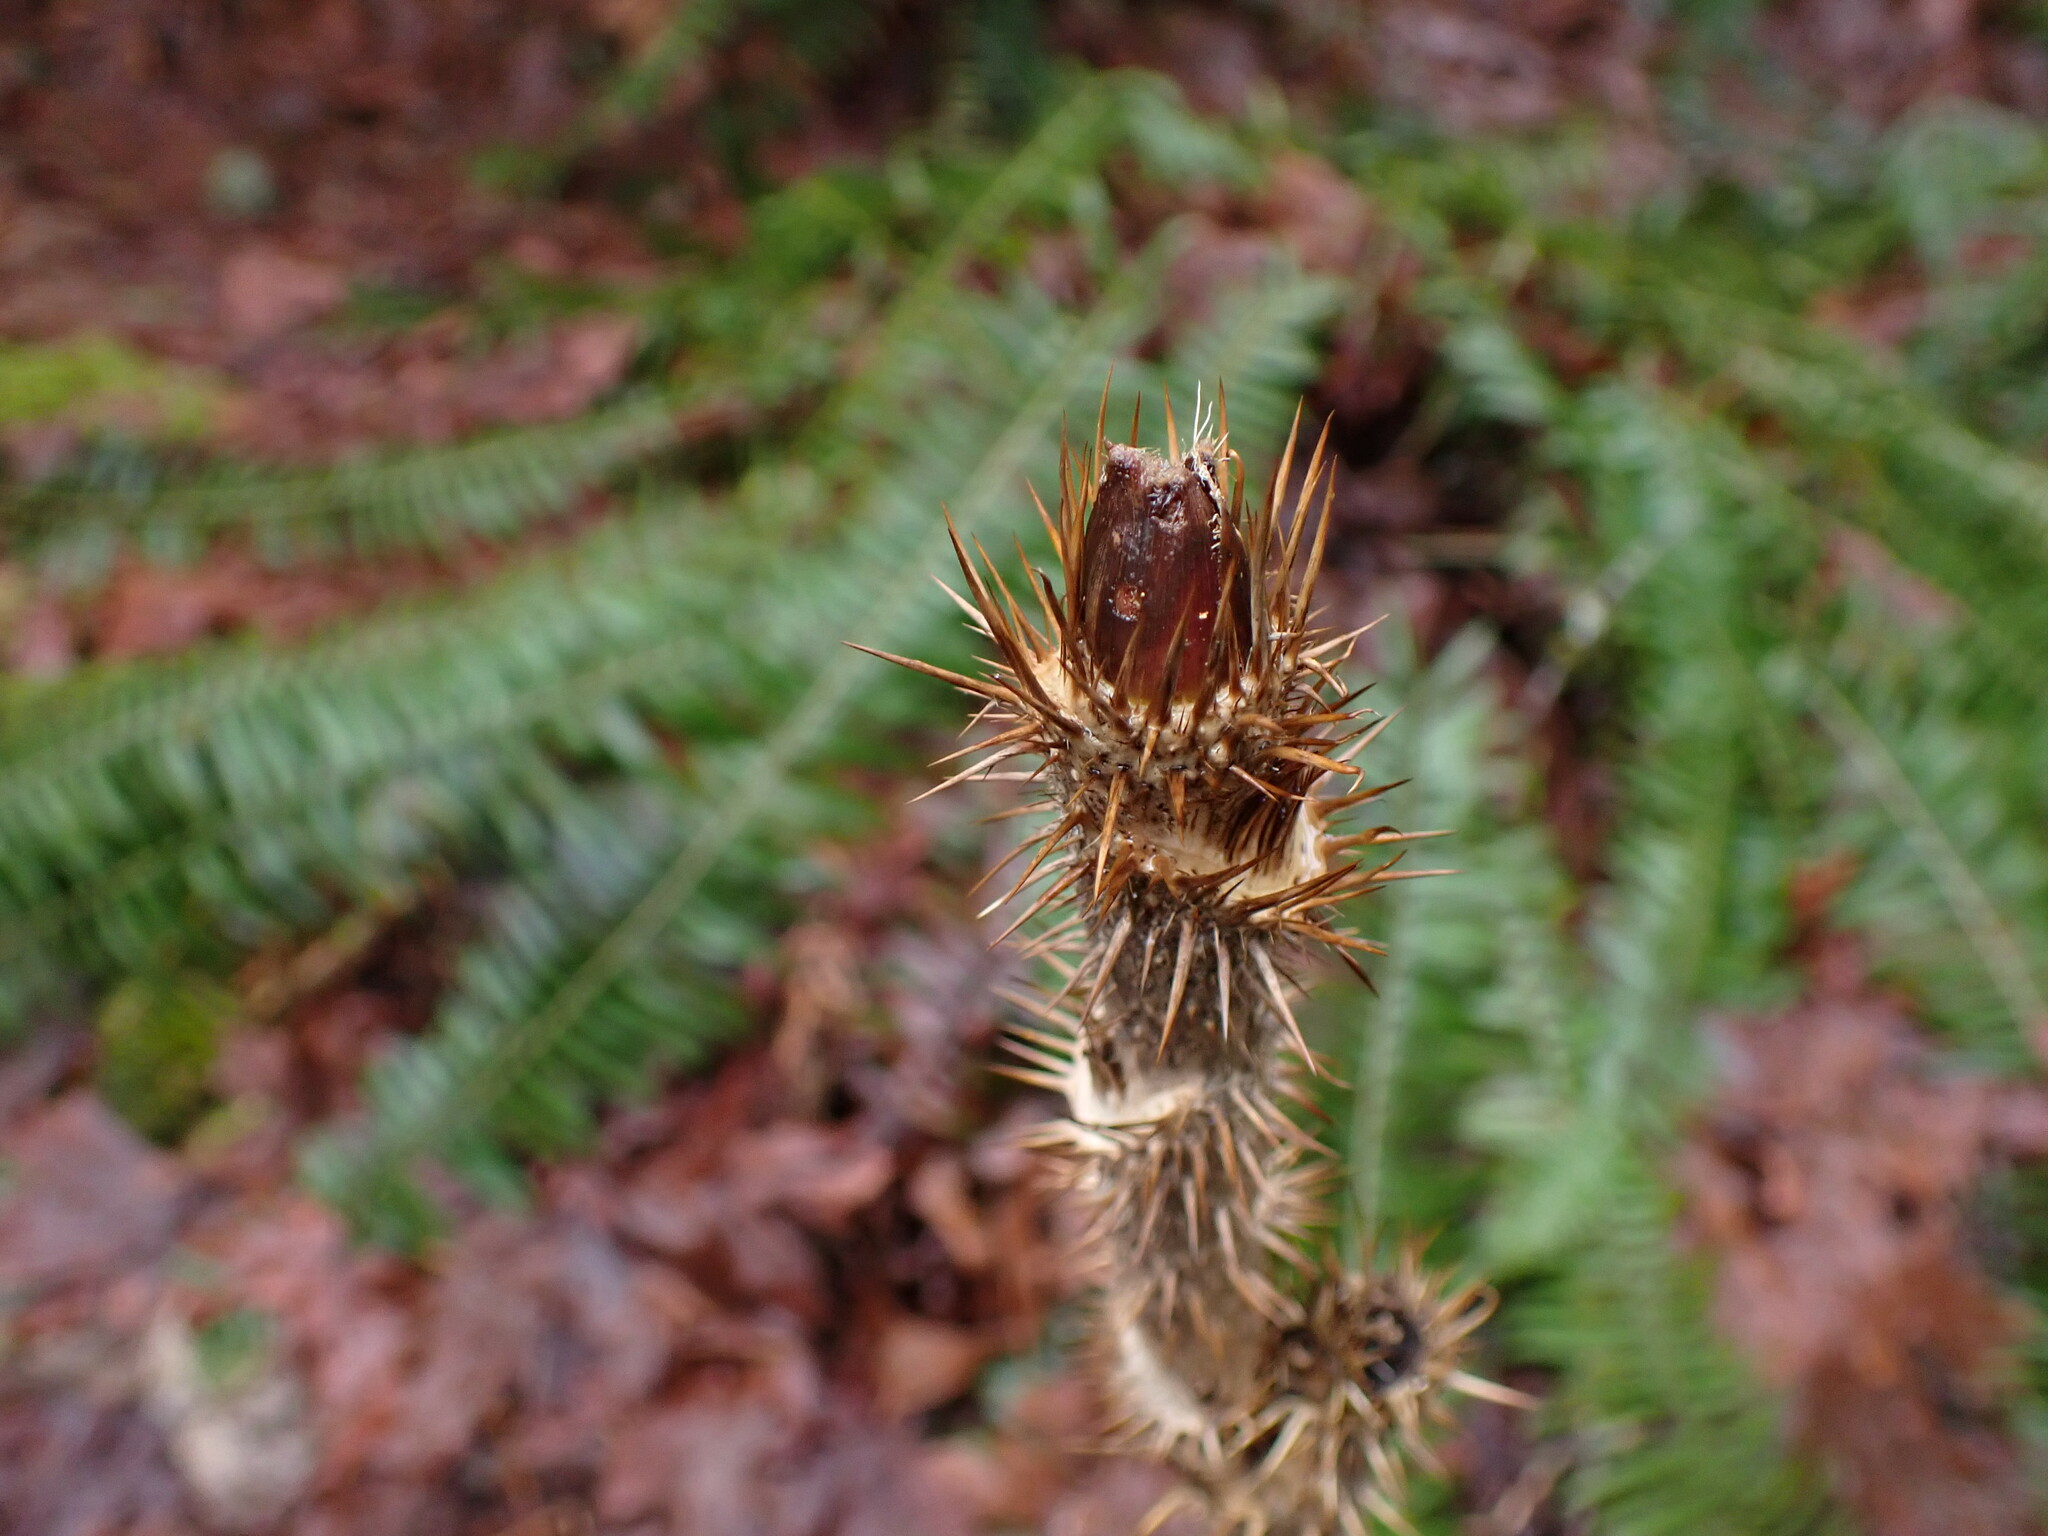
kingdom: Plantae
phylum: Tracheophyta
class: Magnoliopsida
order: Apiales
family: Araliaceae
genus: Oplopanax
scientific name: Oplopanax horridus
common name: Devil's walking-stick
